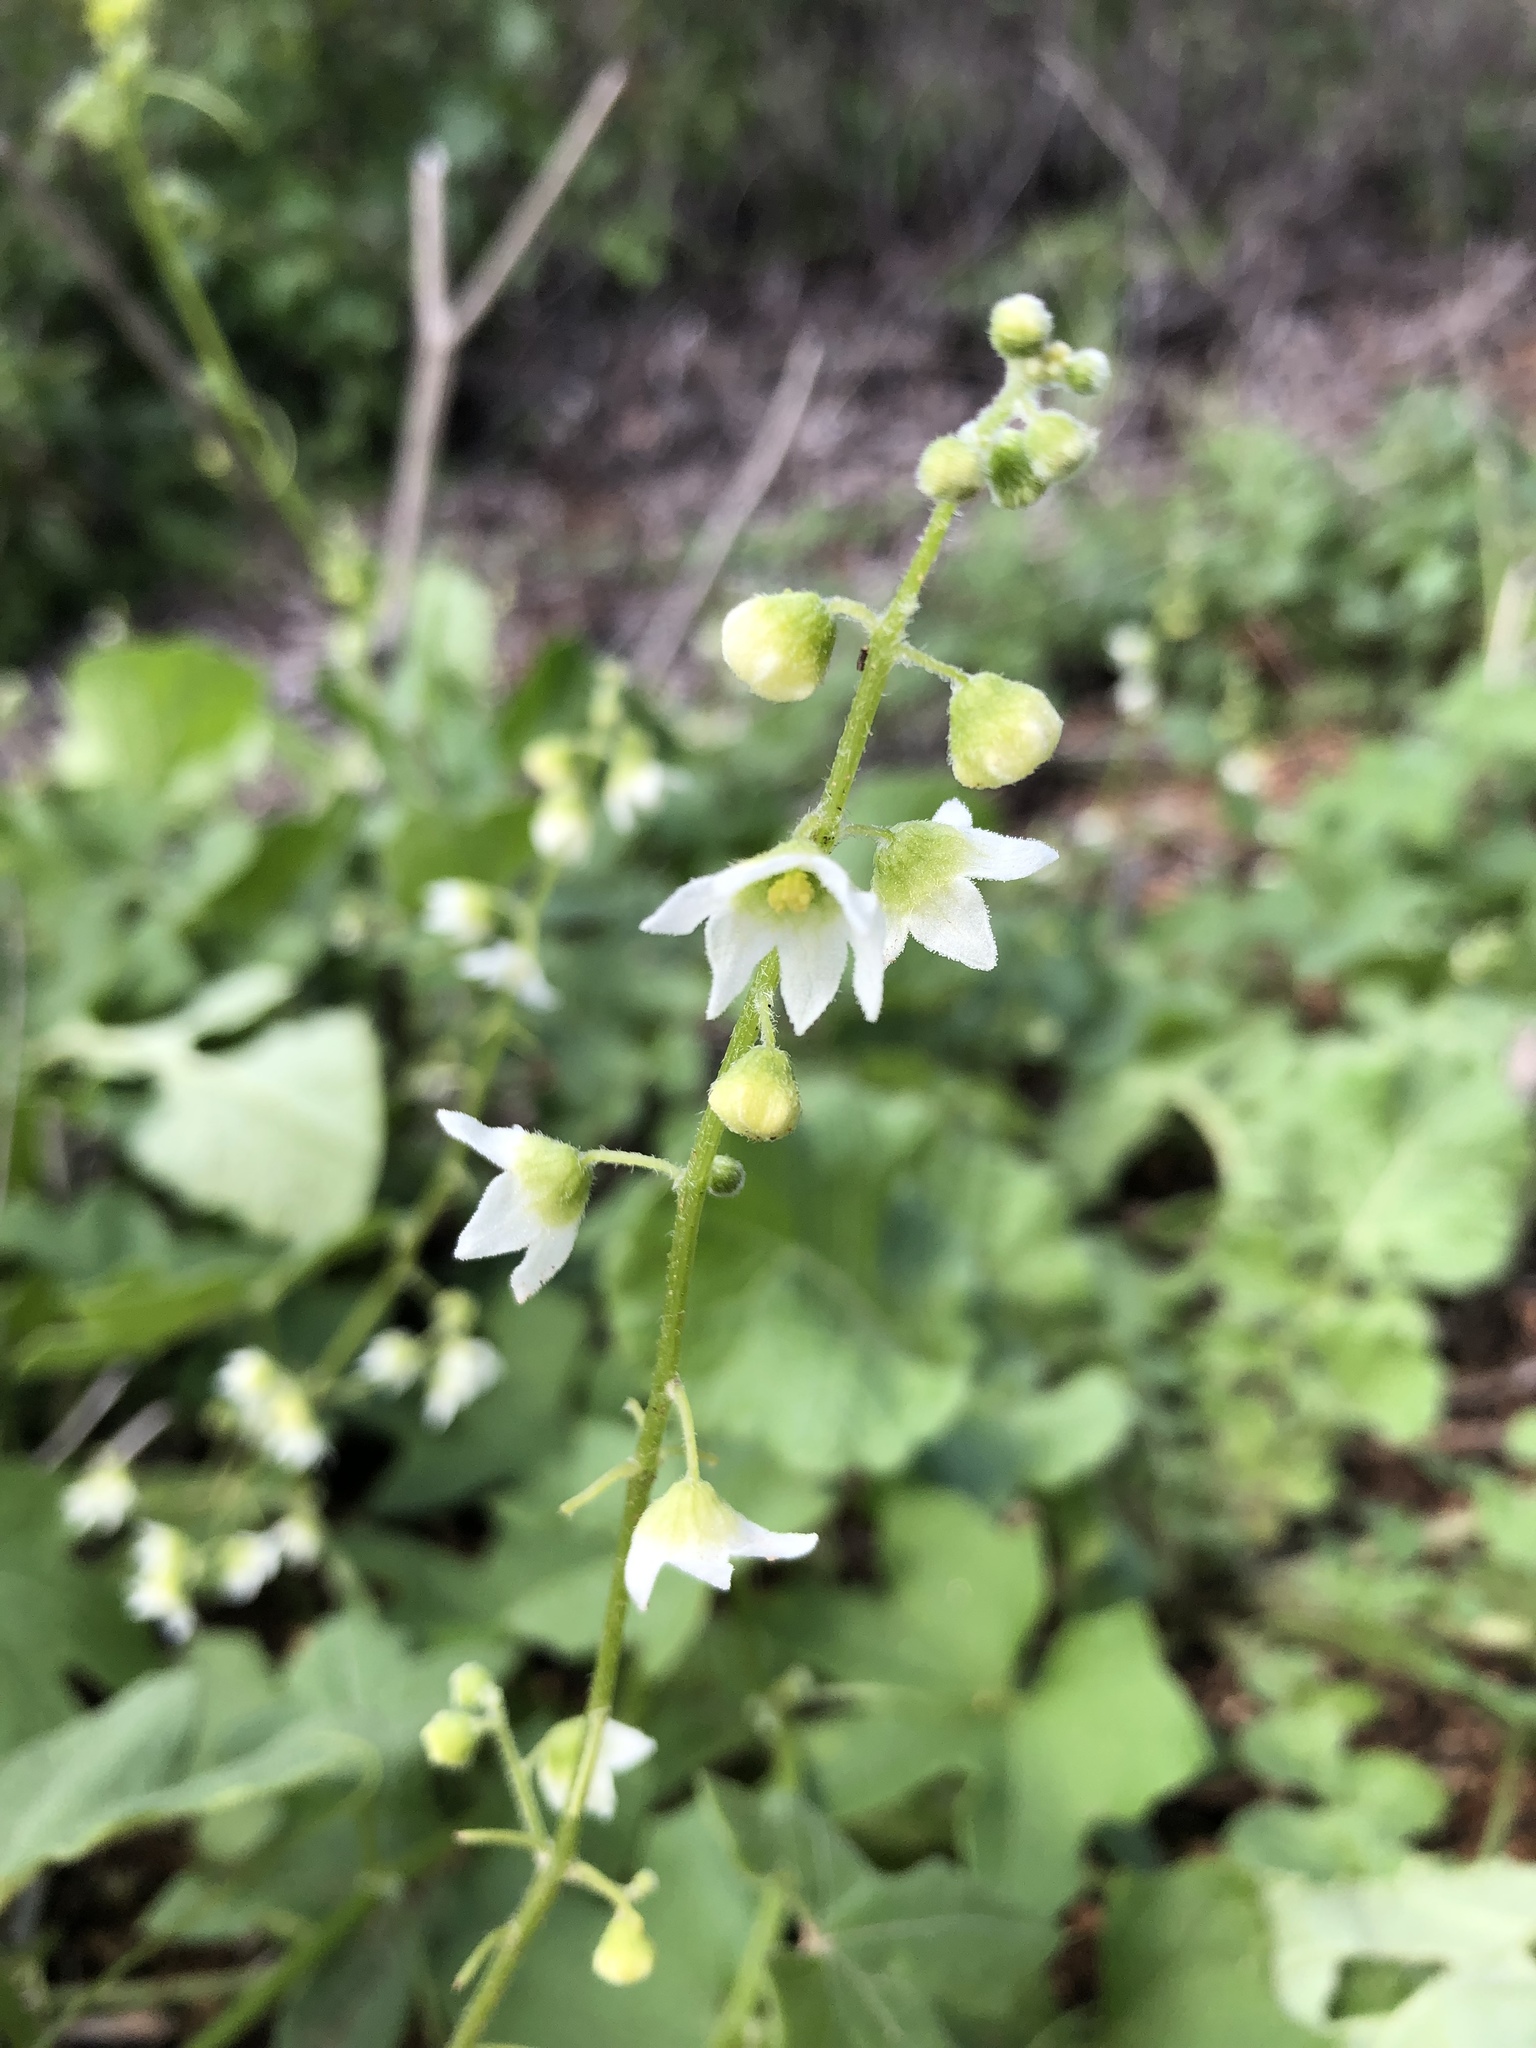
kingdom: Plantae
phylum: Tracheophyta
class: Magnoliopsida
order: Cucurbitales
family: Cucurbitaceae
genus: Marah
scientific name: Marah macrocarpa
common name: Cucamonga manroot
